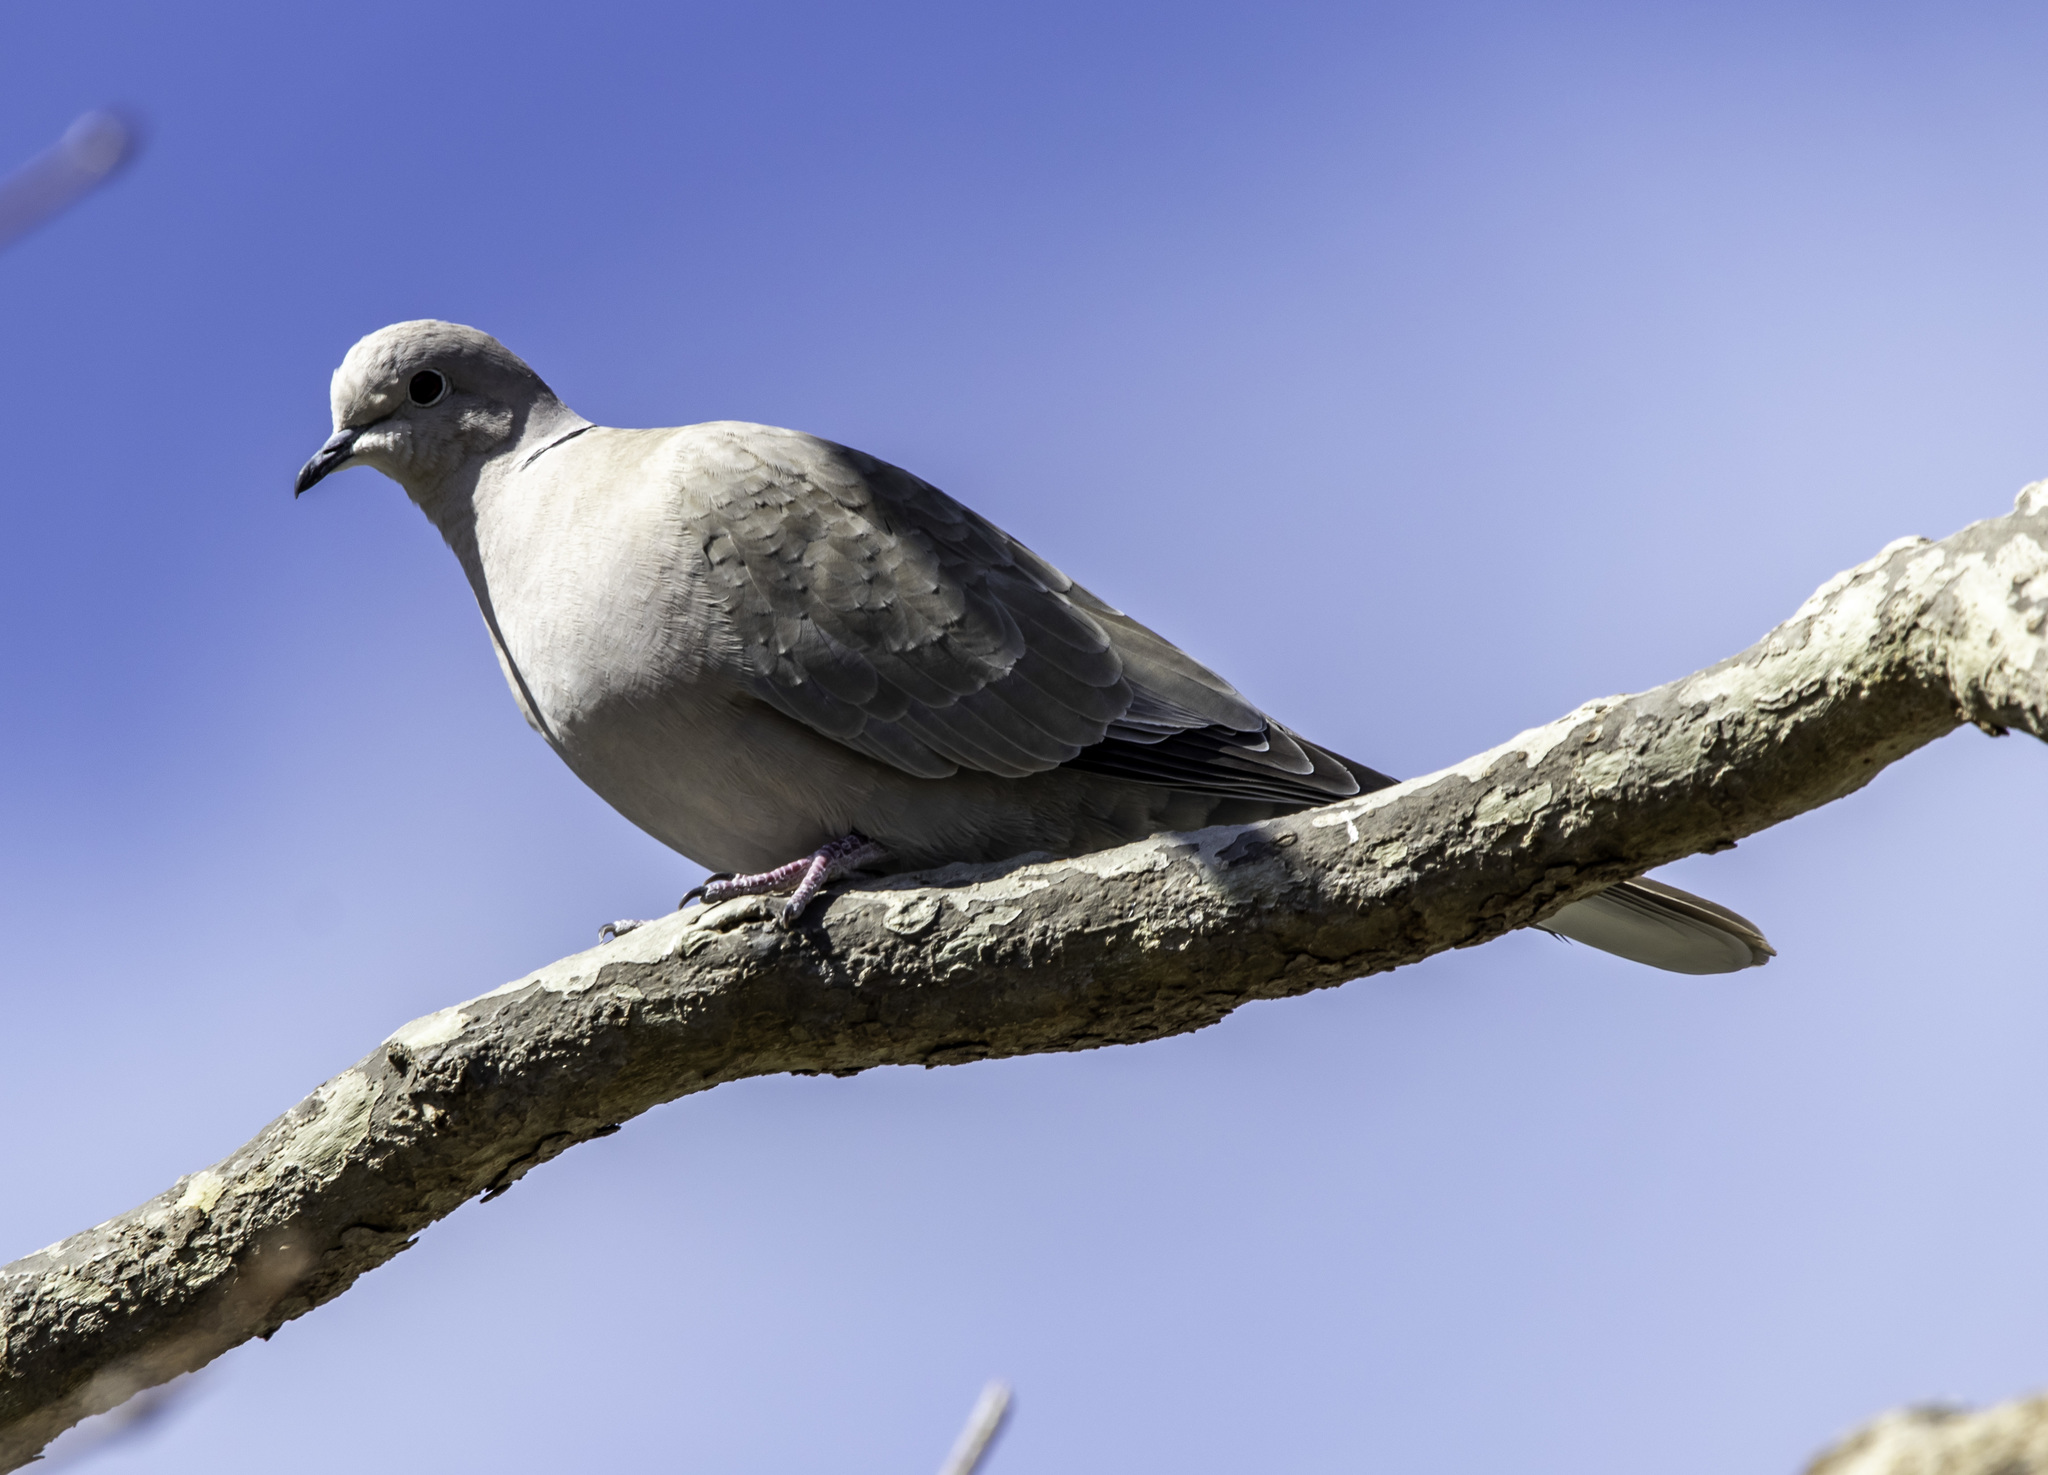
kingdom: Animalia
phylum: Chordata
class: Aves
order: Columbiformes
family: Columbidae
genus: Streptopelia
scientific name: Streptopelia decaocto
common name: Eurasian collared dove
